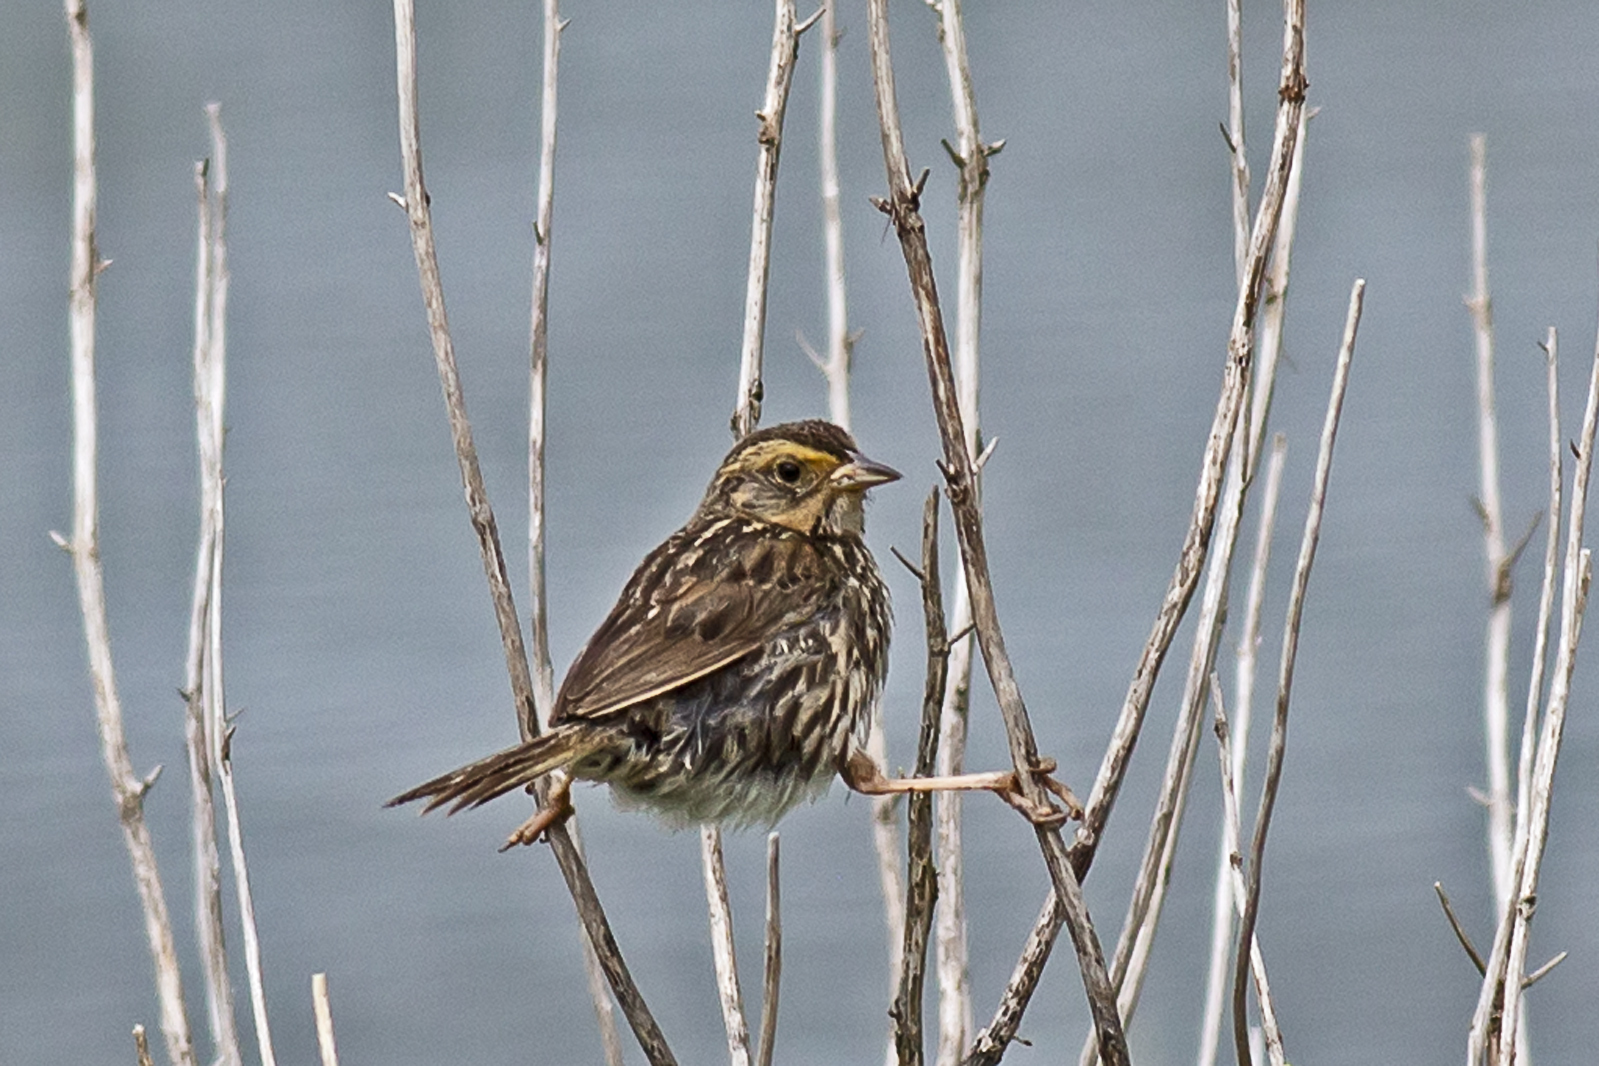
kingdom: Animalia
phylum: Chordata
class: Aves
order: Passeriformes
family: Passerellidae
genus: Ammospiza
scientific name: Ammospiza caudacuta
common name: Saltmarsh sparrow
